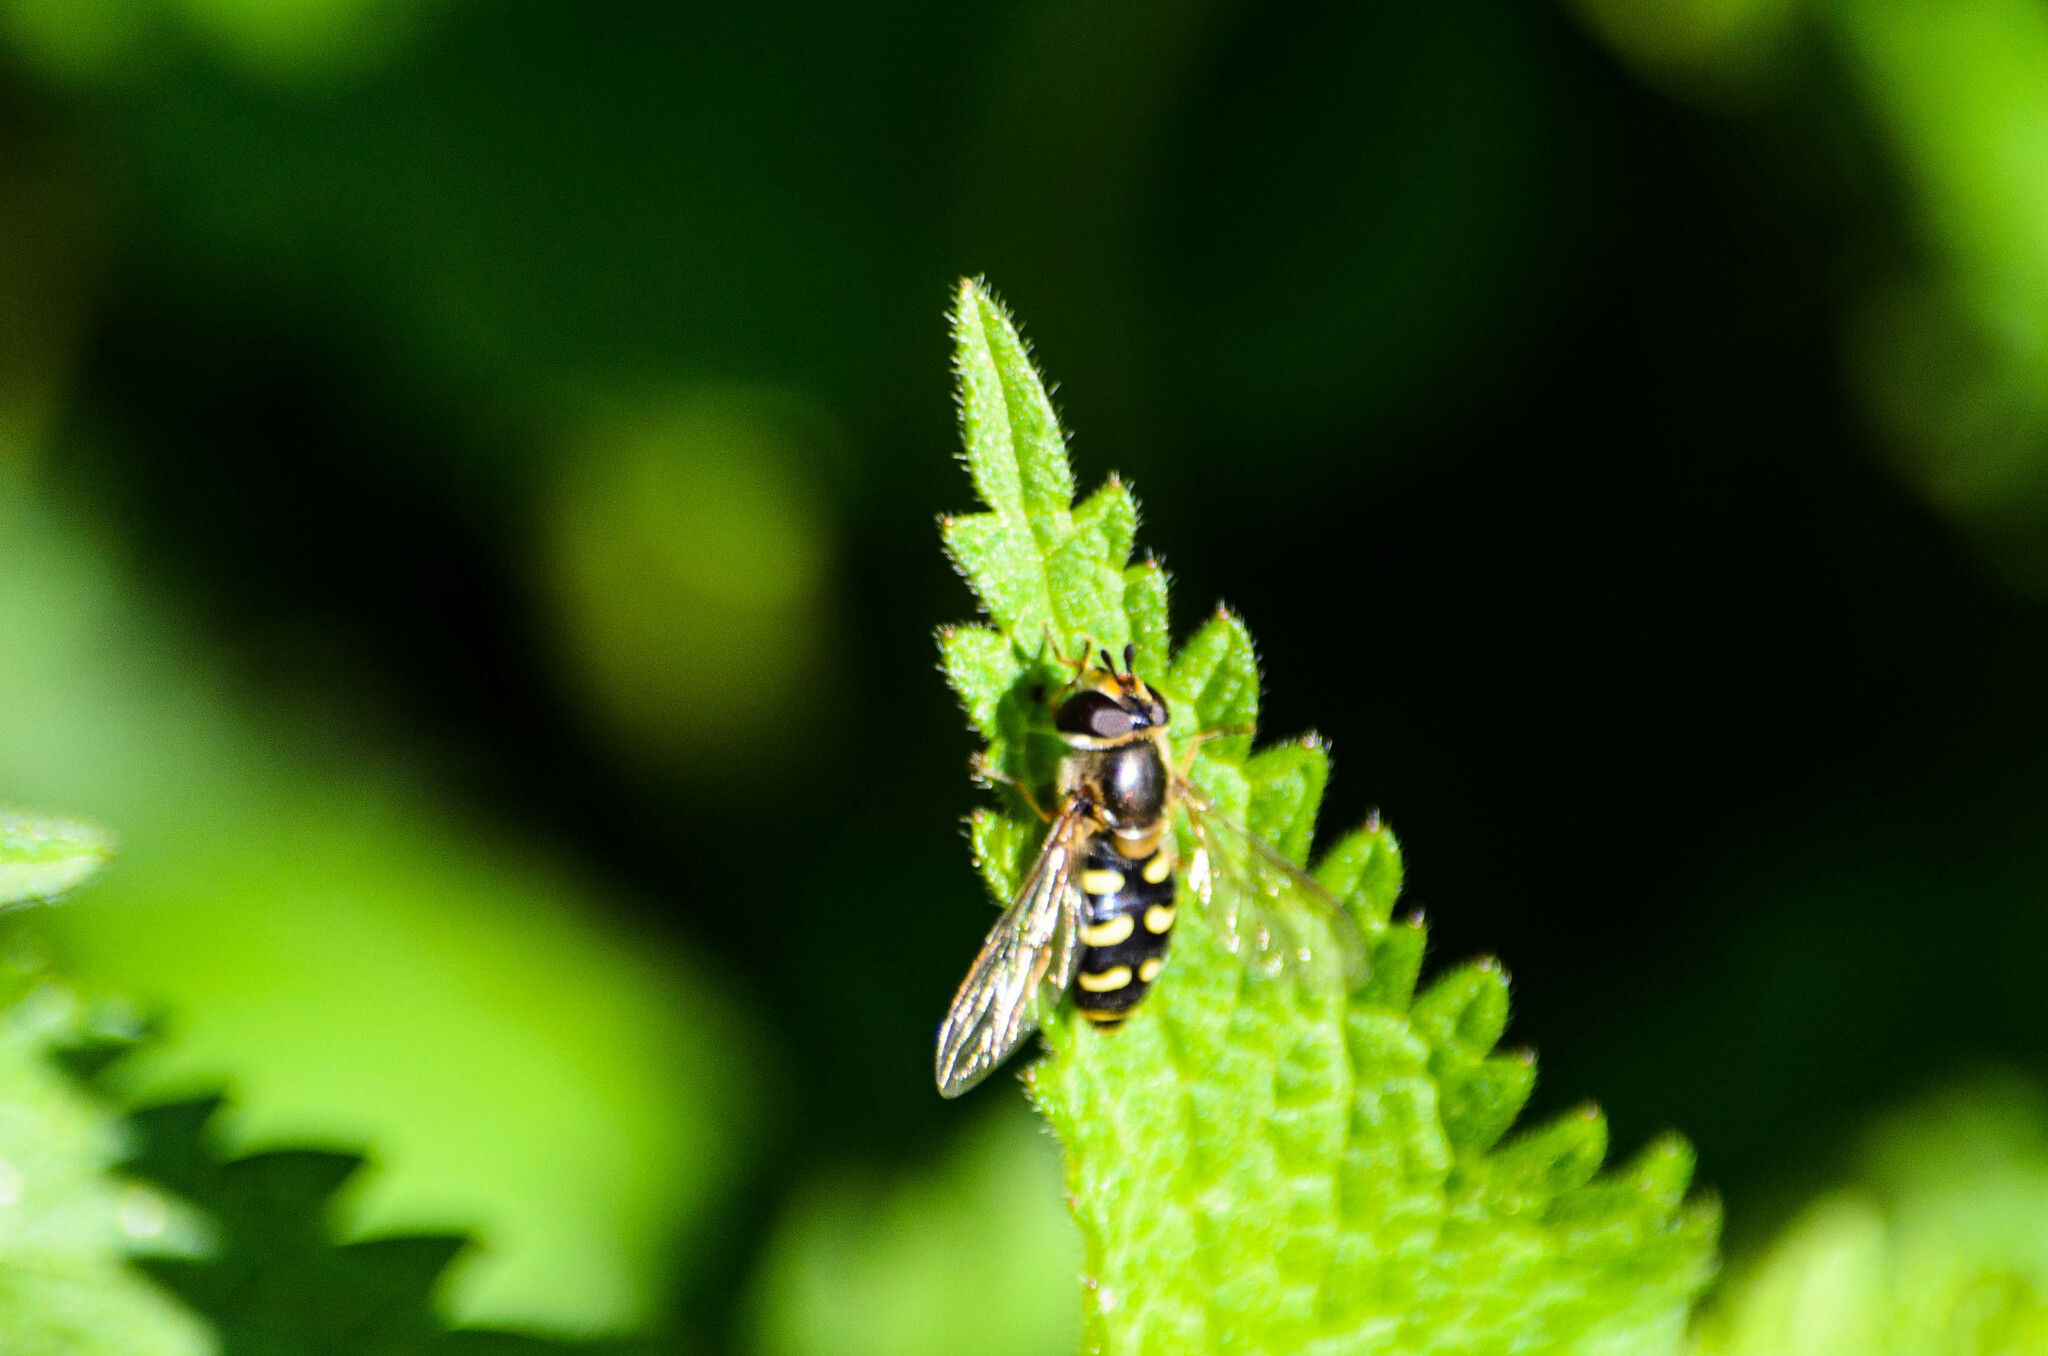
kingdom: Animalia
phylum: Arthropoda
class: Insecta
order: Diptera
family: Syrphidae
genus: Eupeodes
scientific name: Eupeodes luniger
